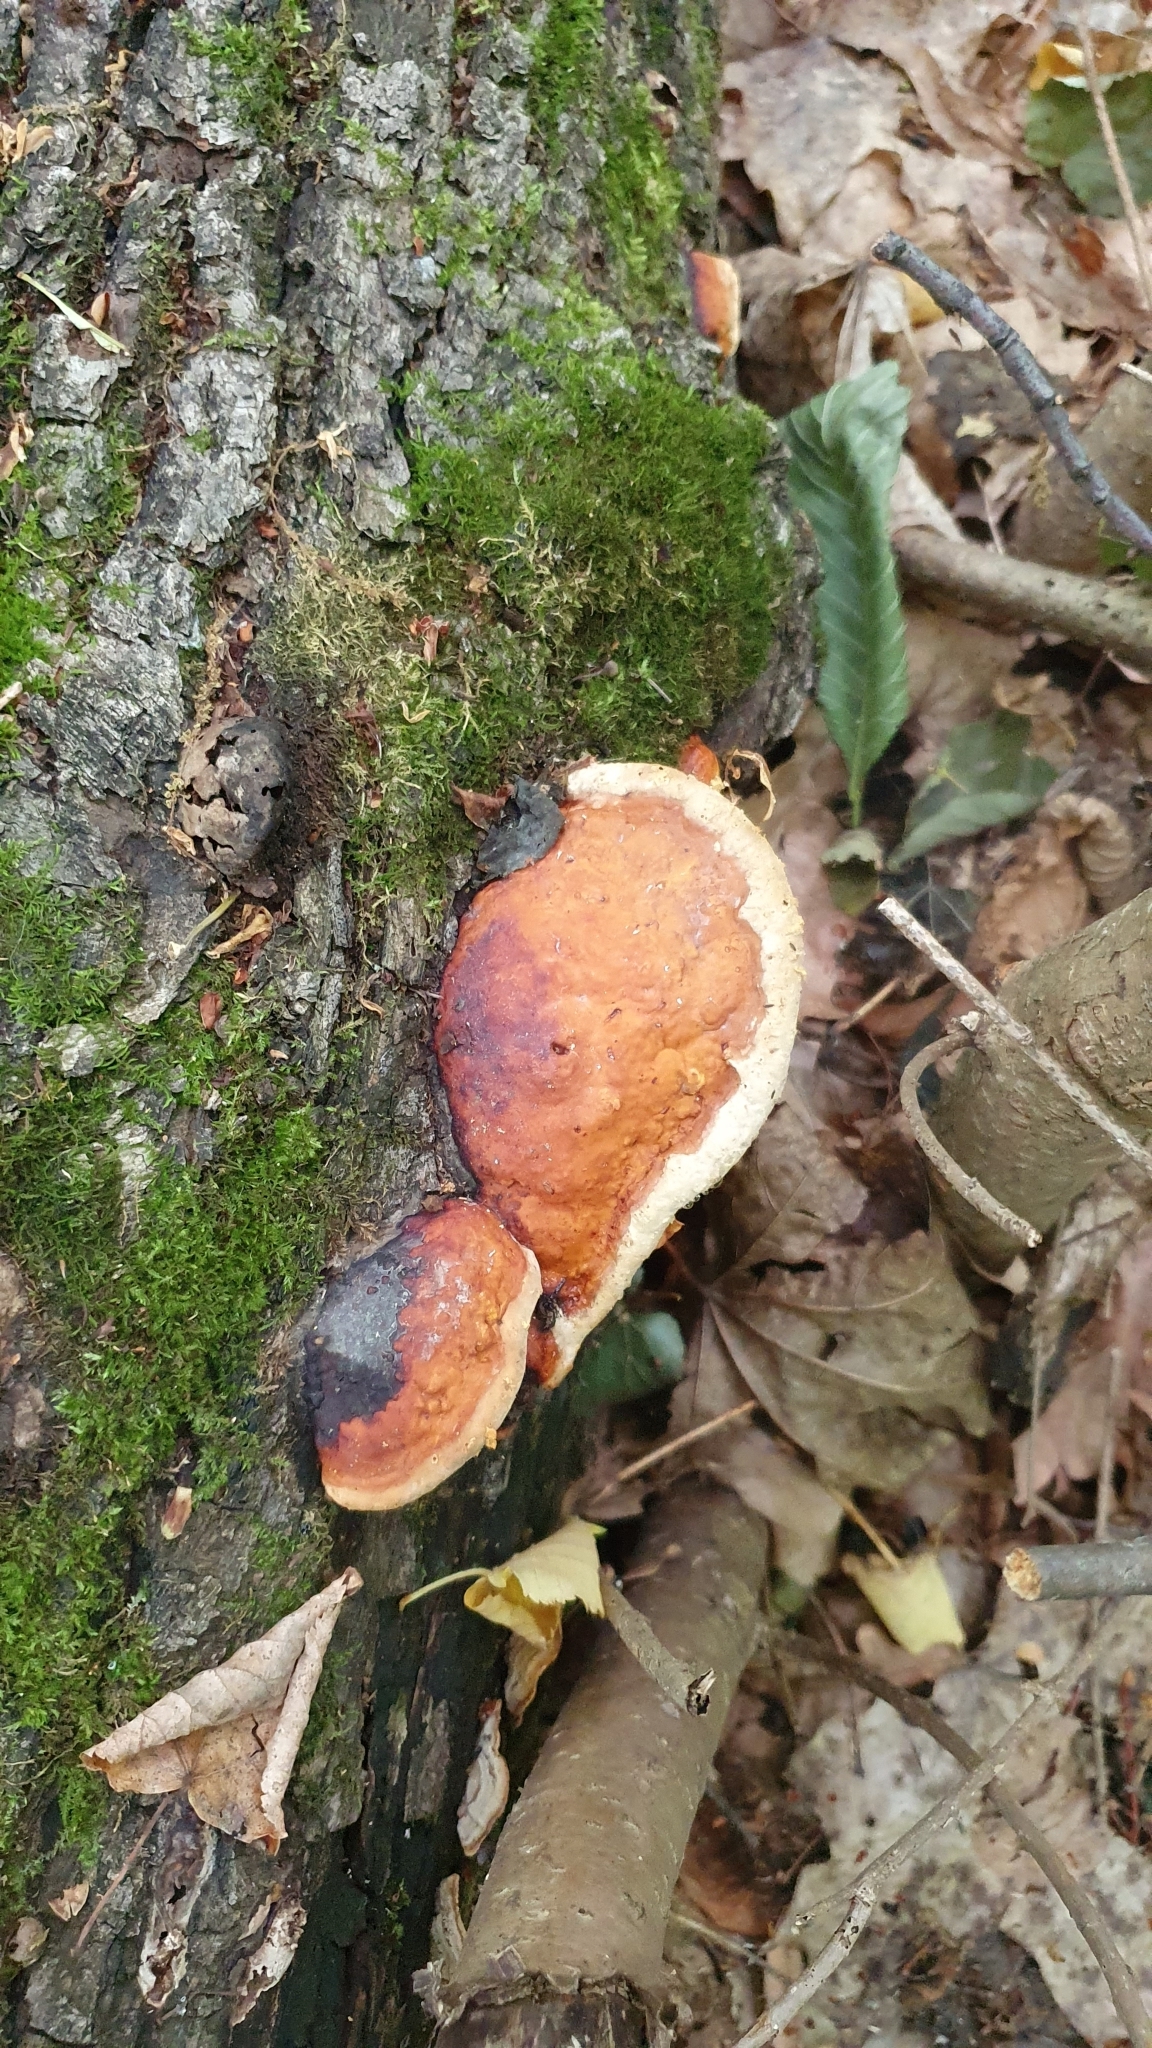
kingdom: Fungi
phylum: Basidiomycota
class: Agaricomycetes
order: Polyporales
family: Fomitopsidaceae
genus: Fomitopsis
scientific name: Fomitopsis pinicola
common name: Red-belted bracket
